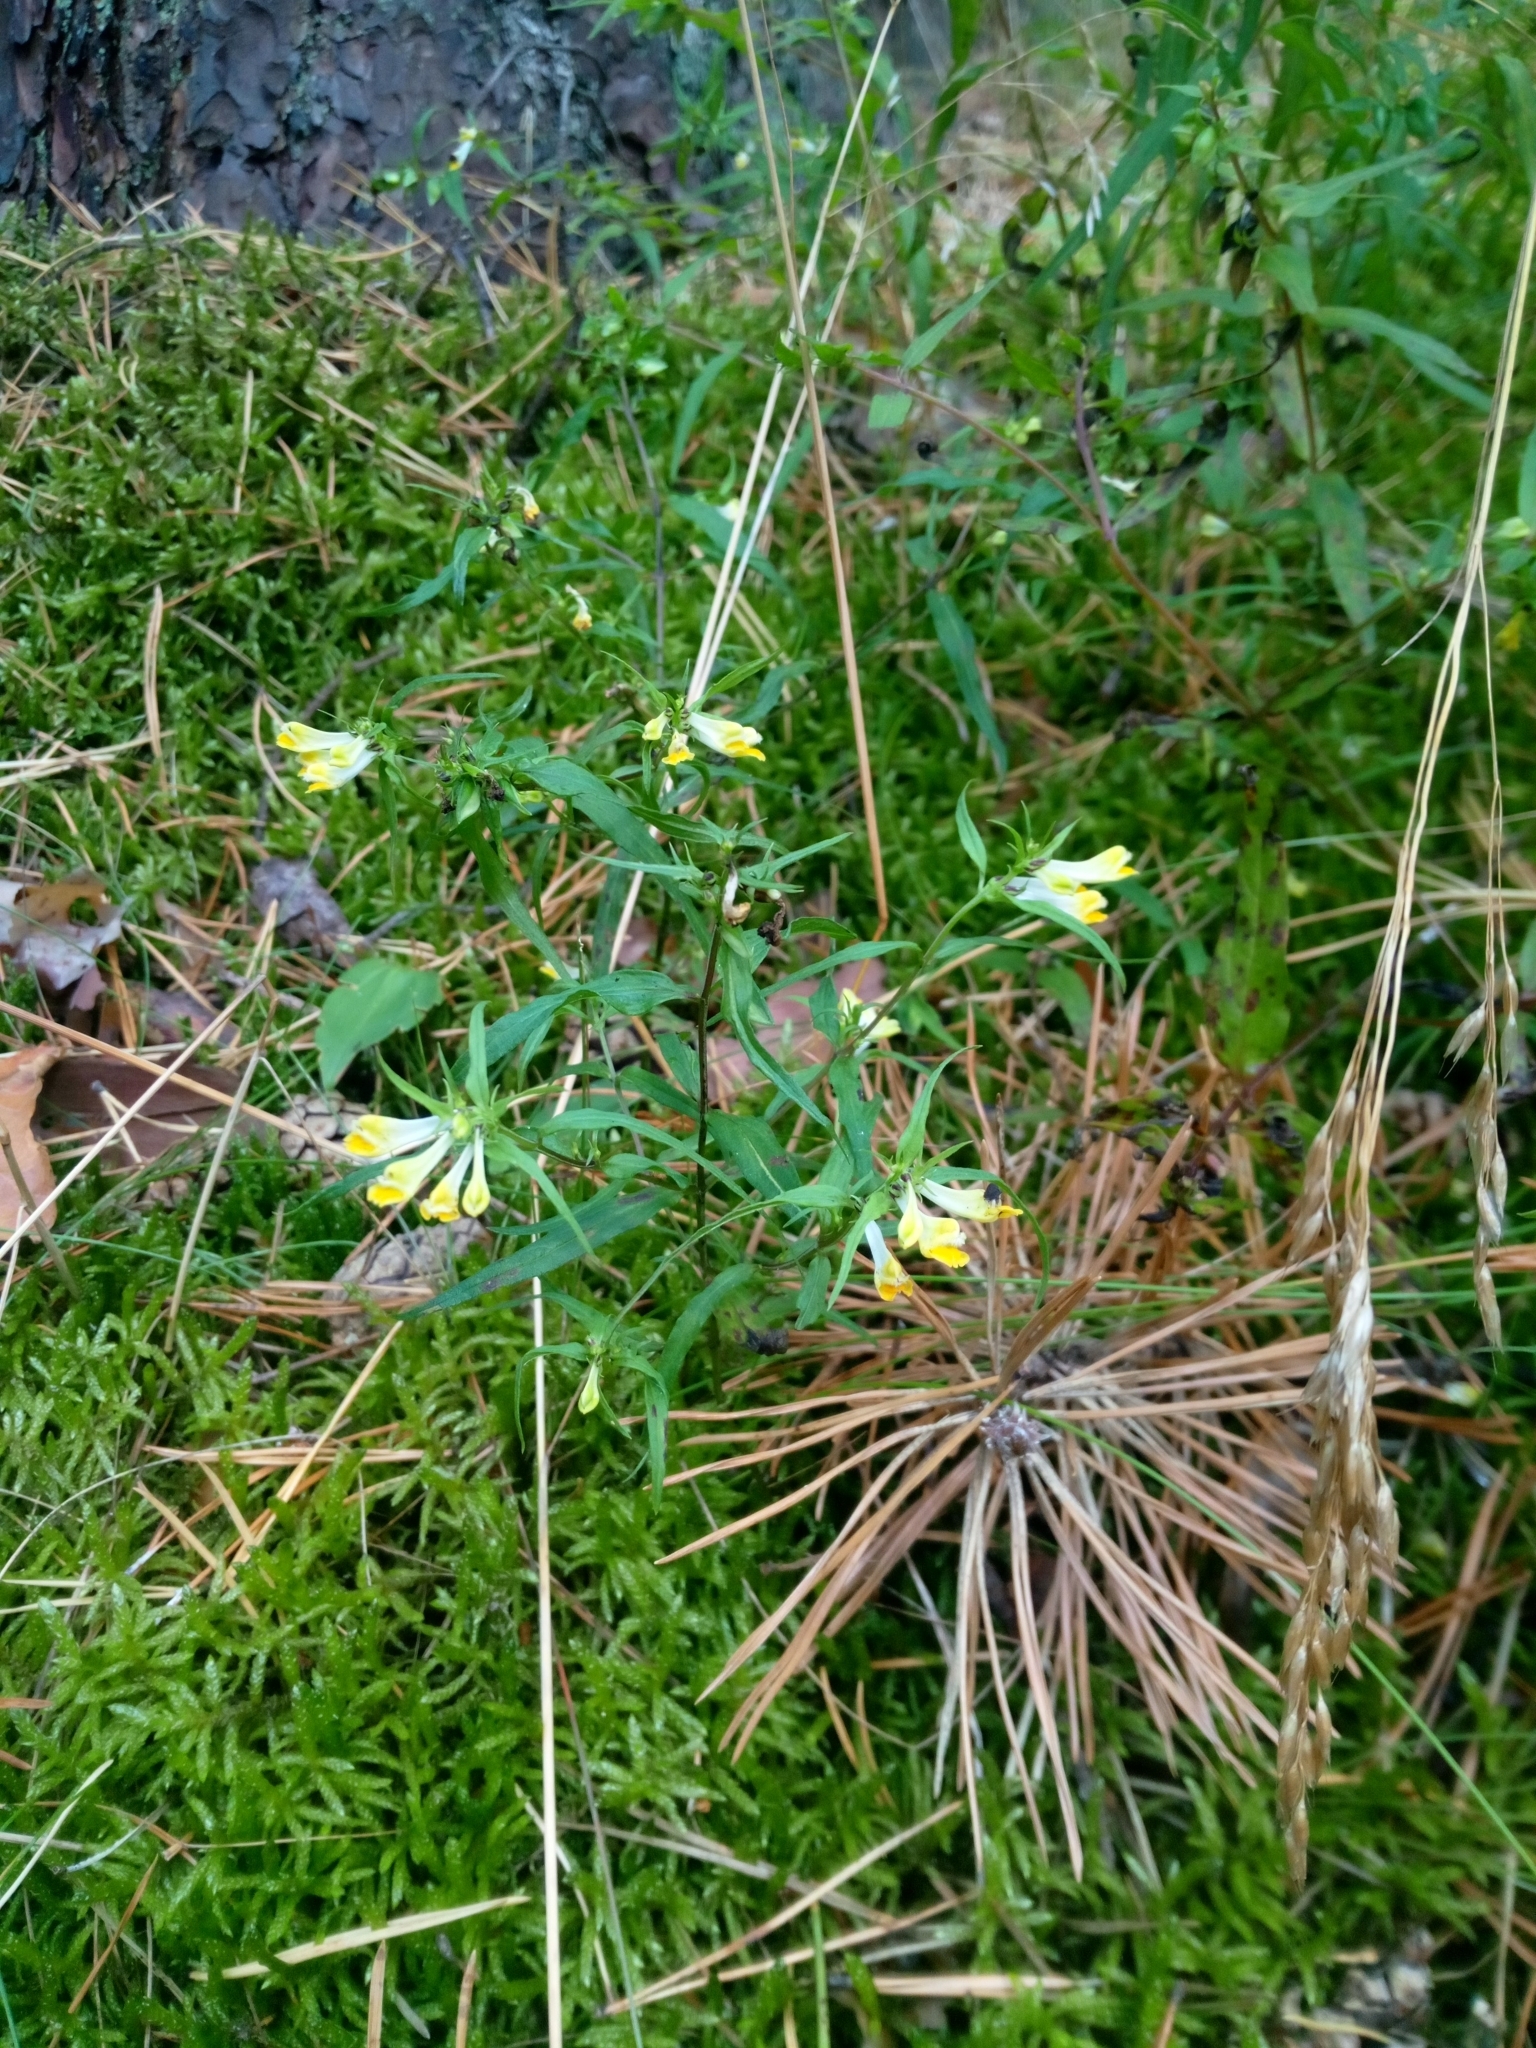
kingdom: Plantae
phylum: Tracheophyta
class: Magnoliopsida
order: Lamiales
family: Orobanchaceae
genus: Melampyrum
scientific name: Melampyrum pratense
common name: Common cow-wheat
